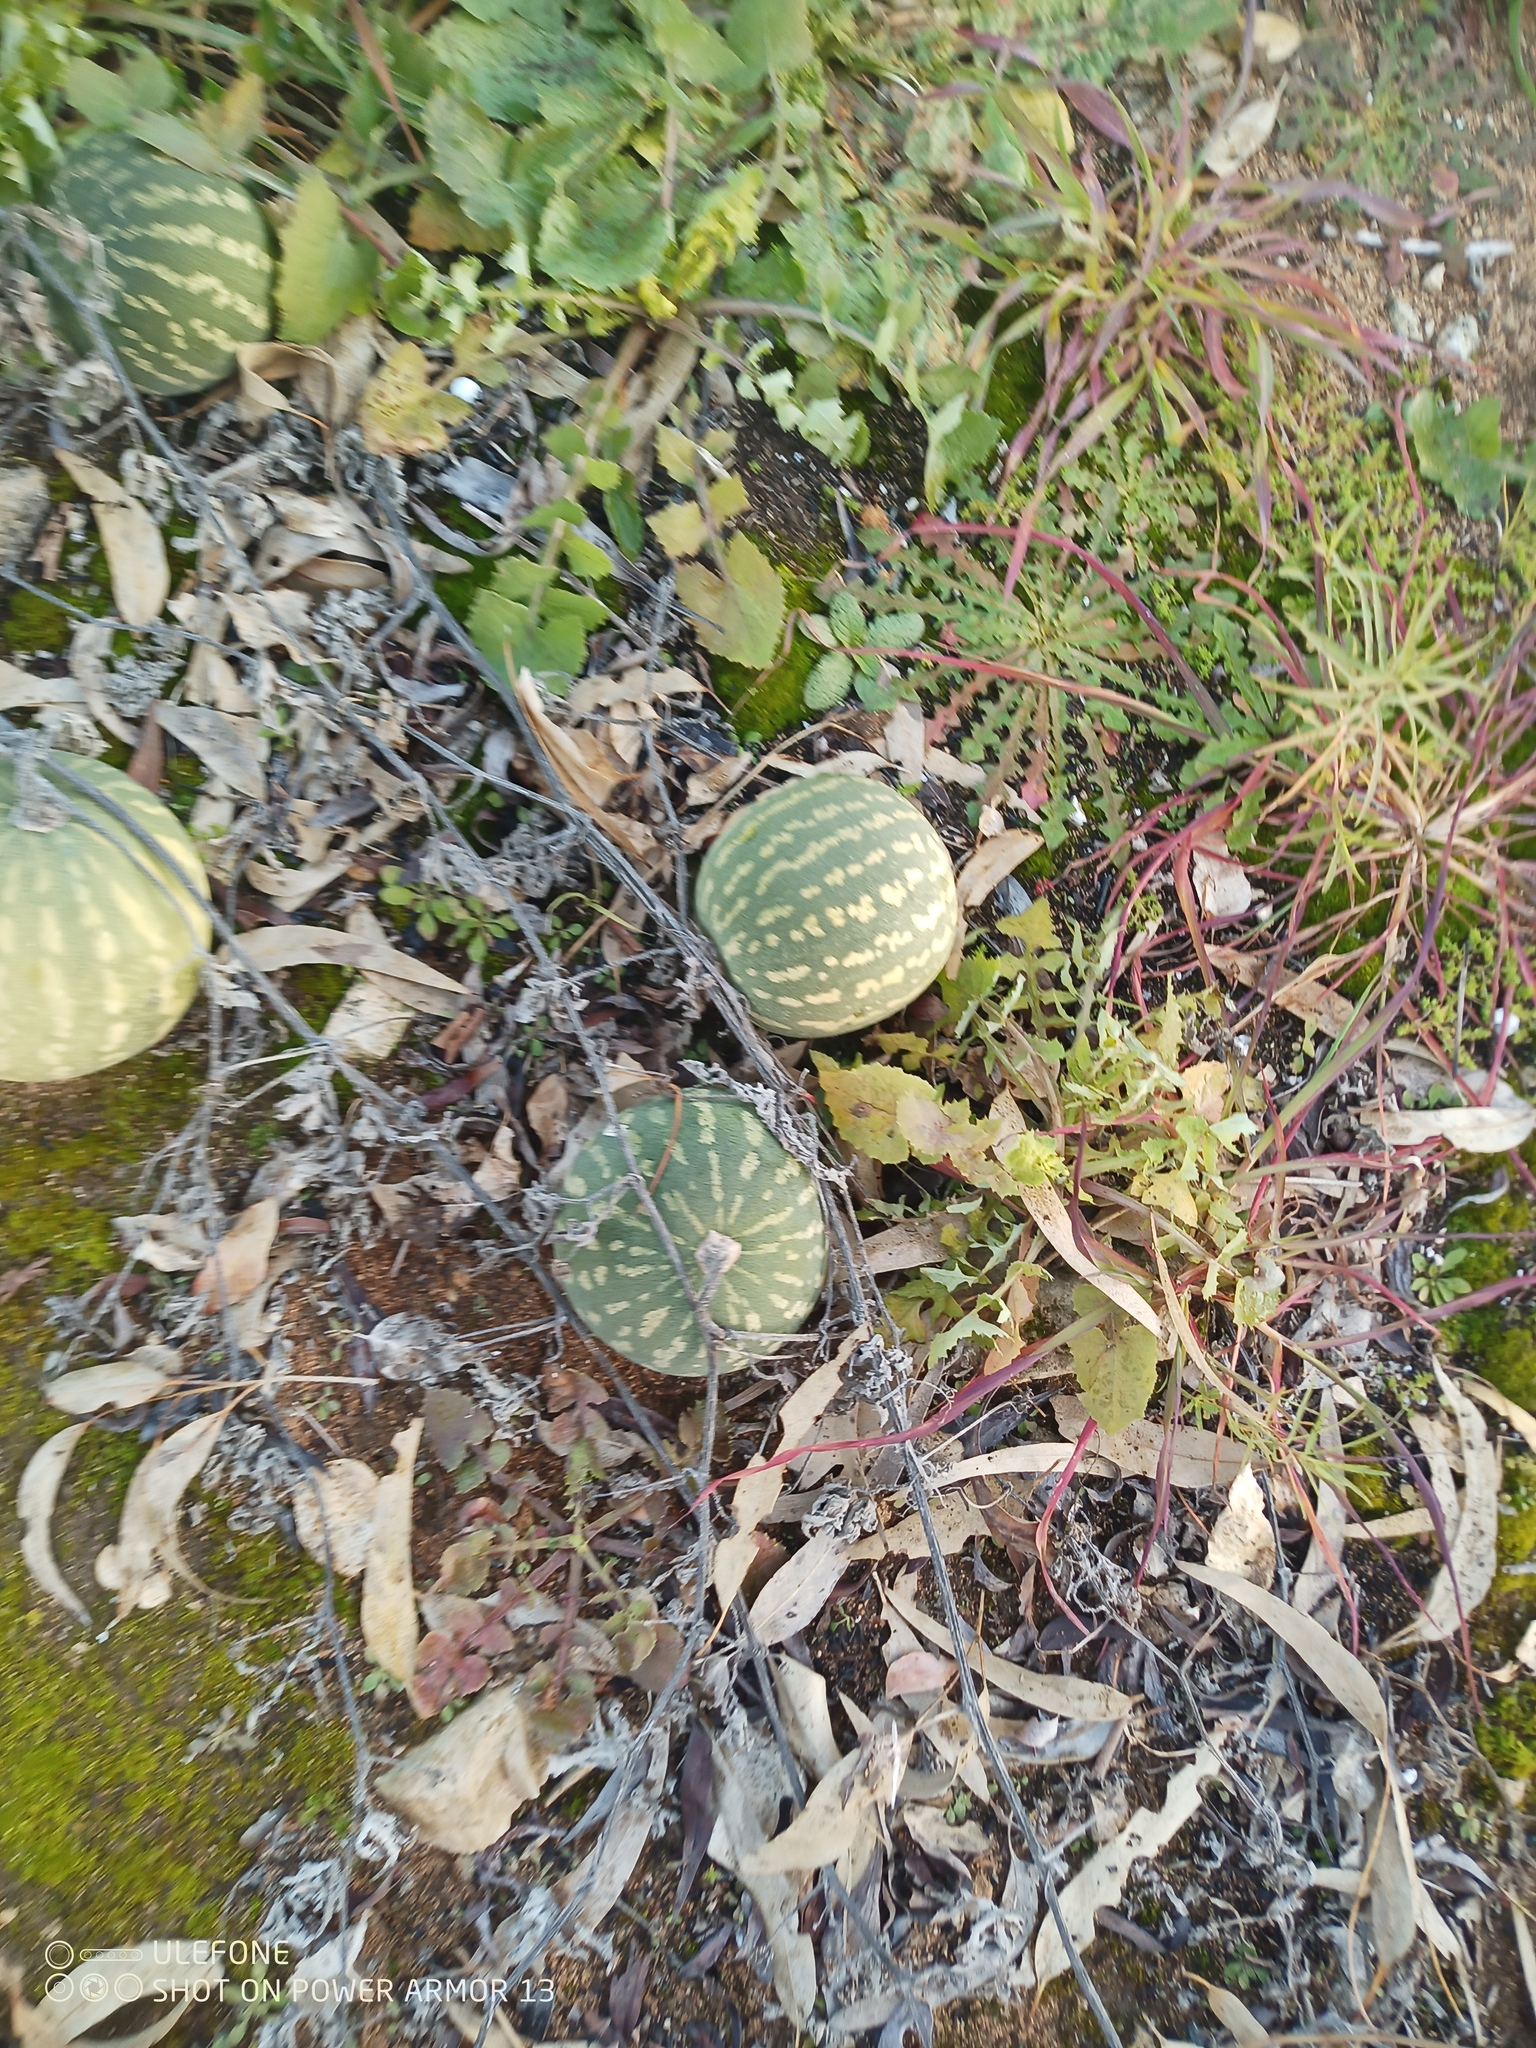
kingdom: Plantae
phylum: Tracheophyta
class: Magnoliopsida
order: Cucurbitales
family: Cucurbitaceae
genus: Citrullus
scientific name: Citrullus amarus
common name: Fodder-melon
